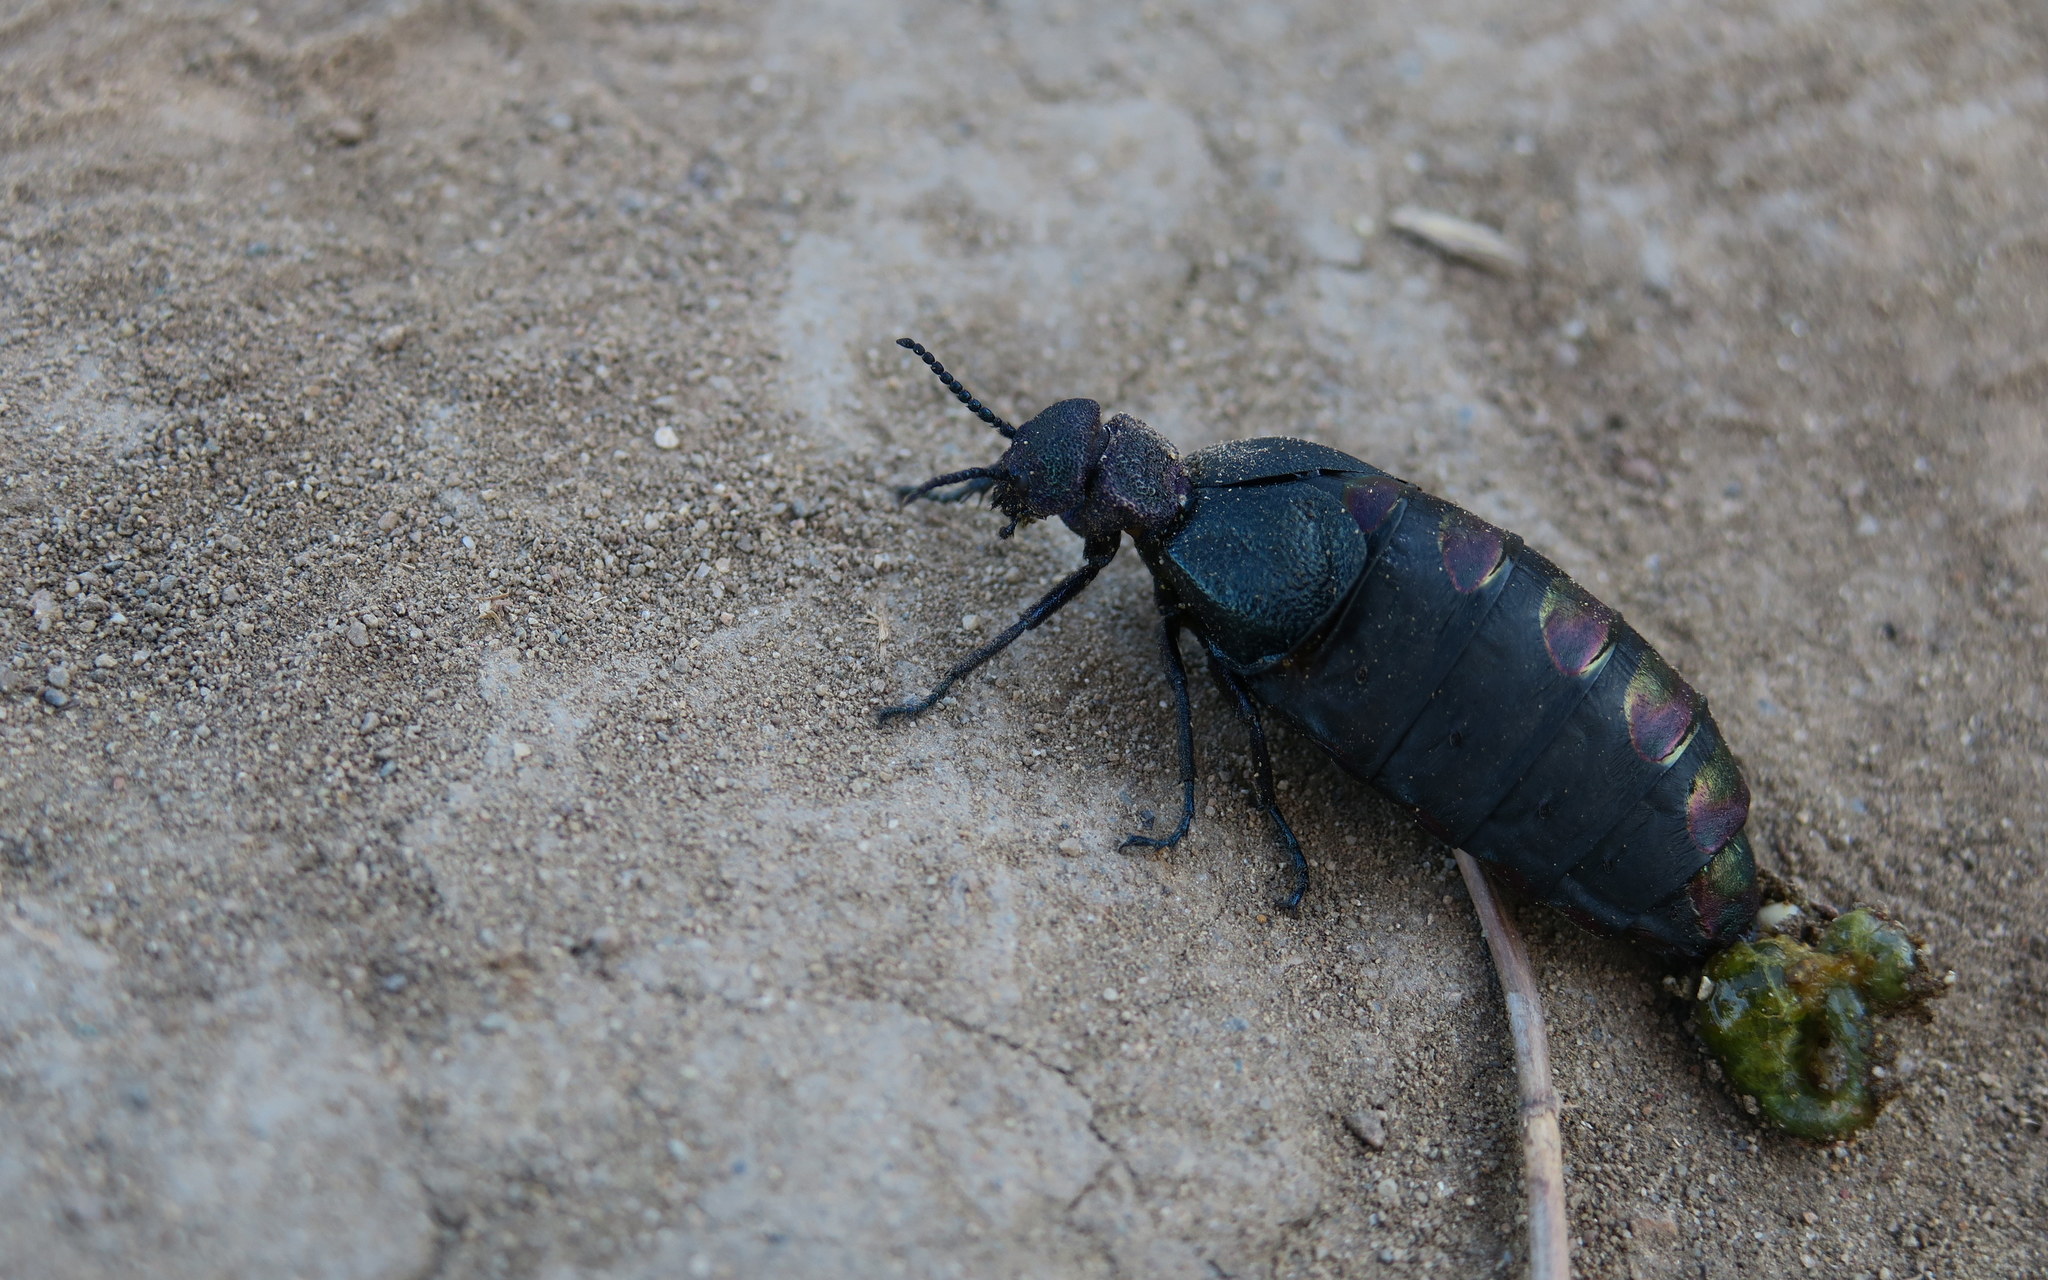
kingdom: Animalia
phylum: Arthropoda
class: Insecta
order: Coleoptera
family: Meloidae
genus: Meloe
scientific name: Meloe variegatus
